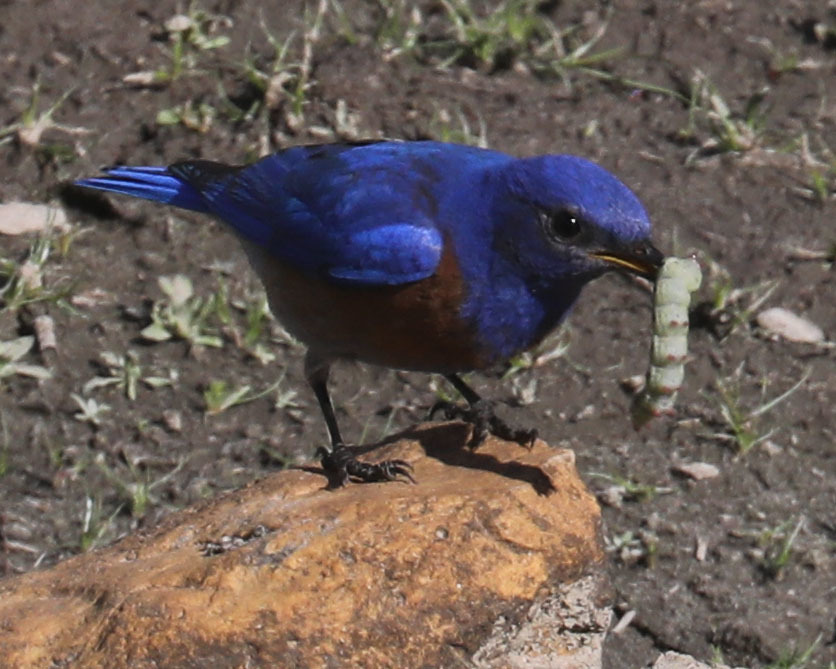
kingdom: Animalia
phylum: Arthropoda
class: Insecta
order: Lepidoptera
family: Sphingidae
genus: Proserpinus
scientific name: Proserpinus lucidus
